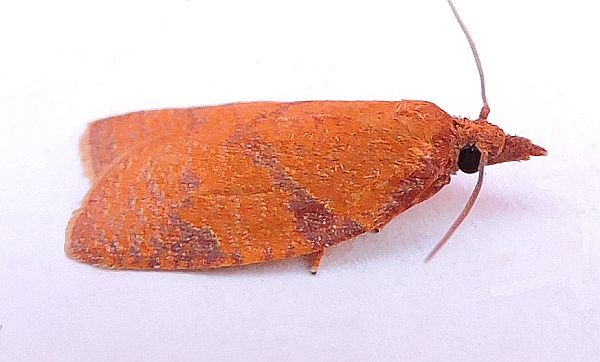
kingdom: Animalia
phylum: Arthropoda
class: Insecta
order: Lepidoptera
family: Tortricidae
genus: Cenopis
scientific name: Cenopis directana
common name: Chokecherry leafroller moth
